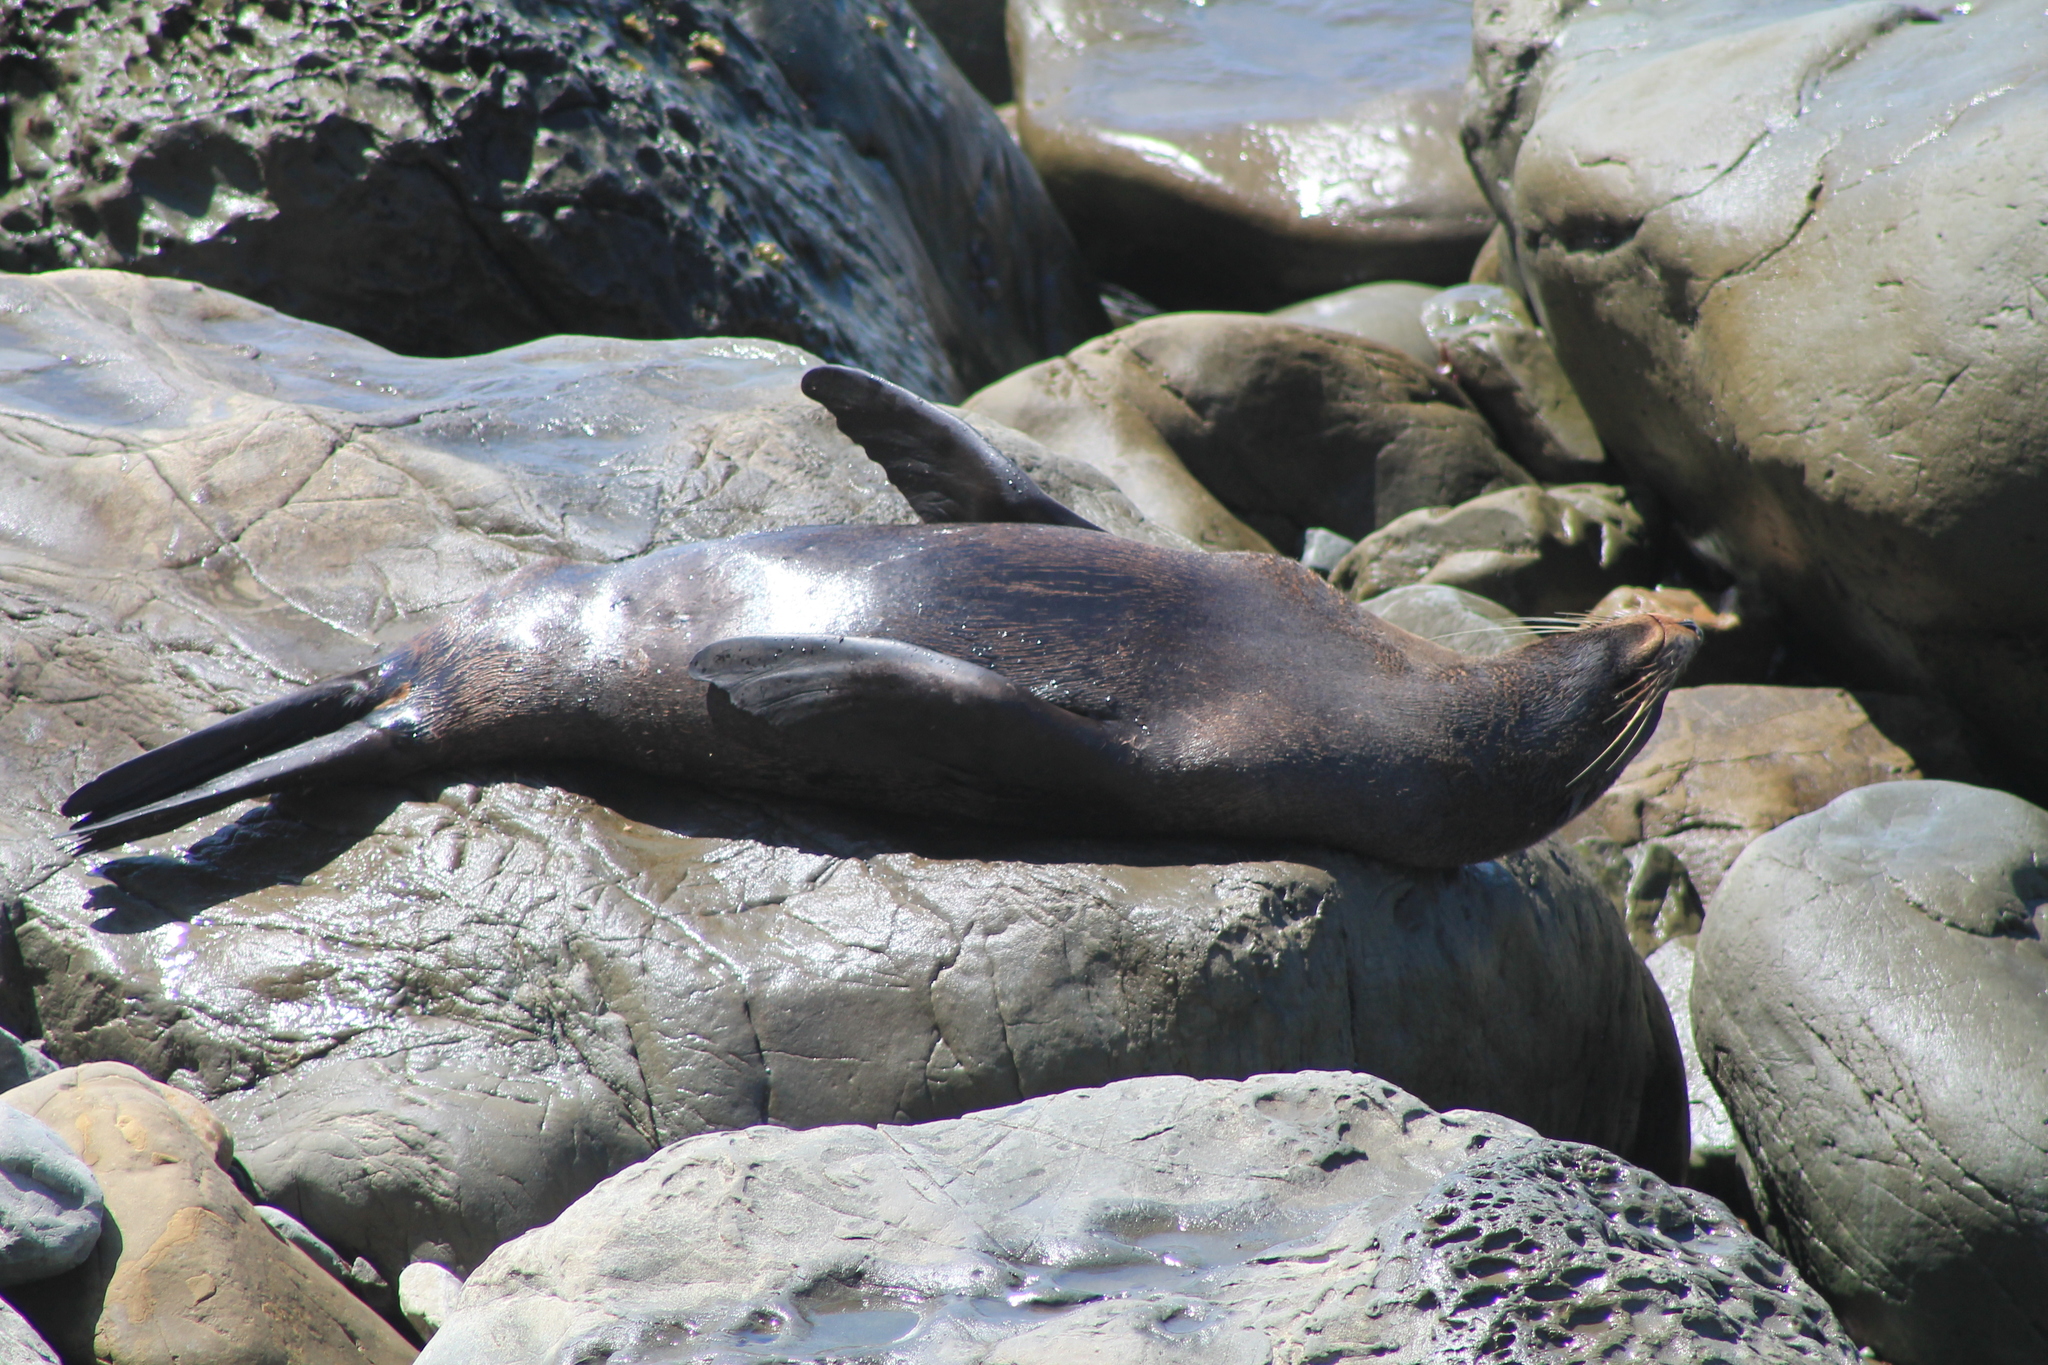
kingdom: Animalia
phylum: Chordata
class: Mammalia
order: Carnivora
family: Otariidae
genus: Arctocephalus
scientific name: Arctocephalus forsteri
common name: New zealand fur seal
